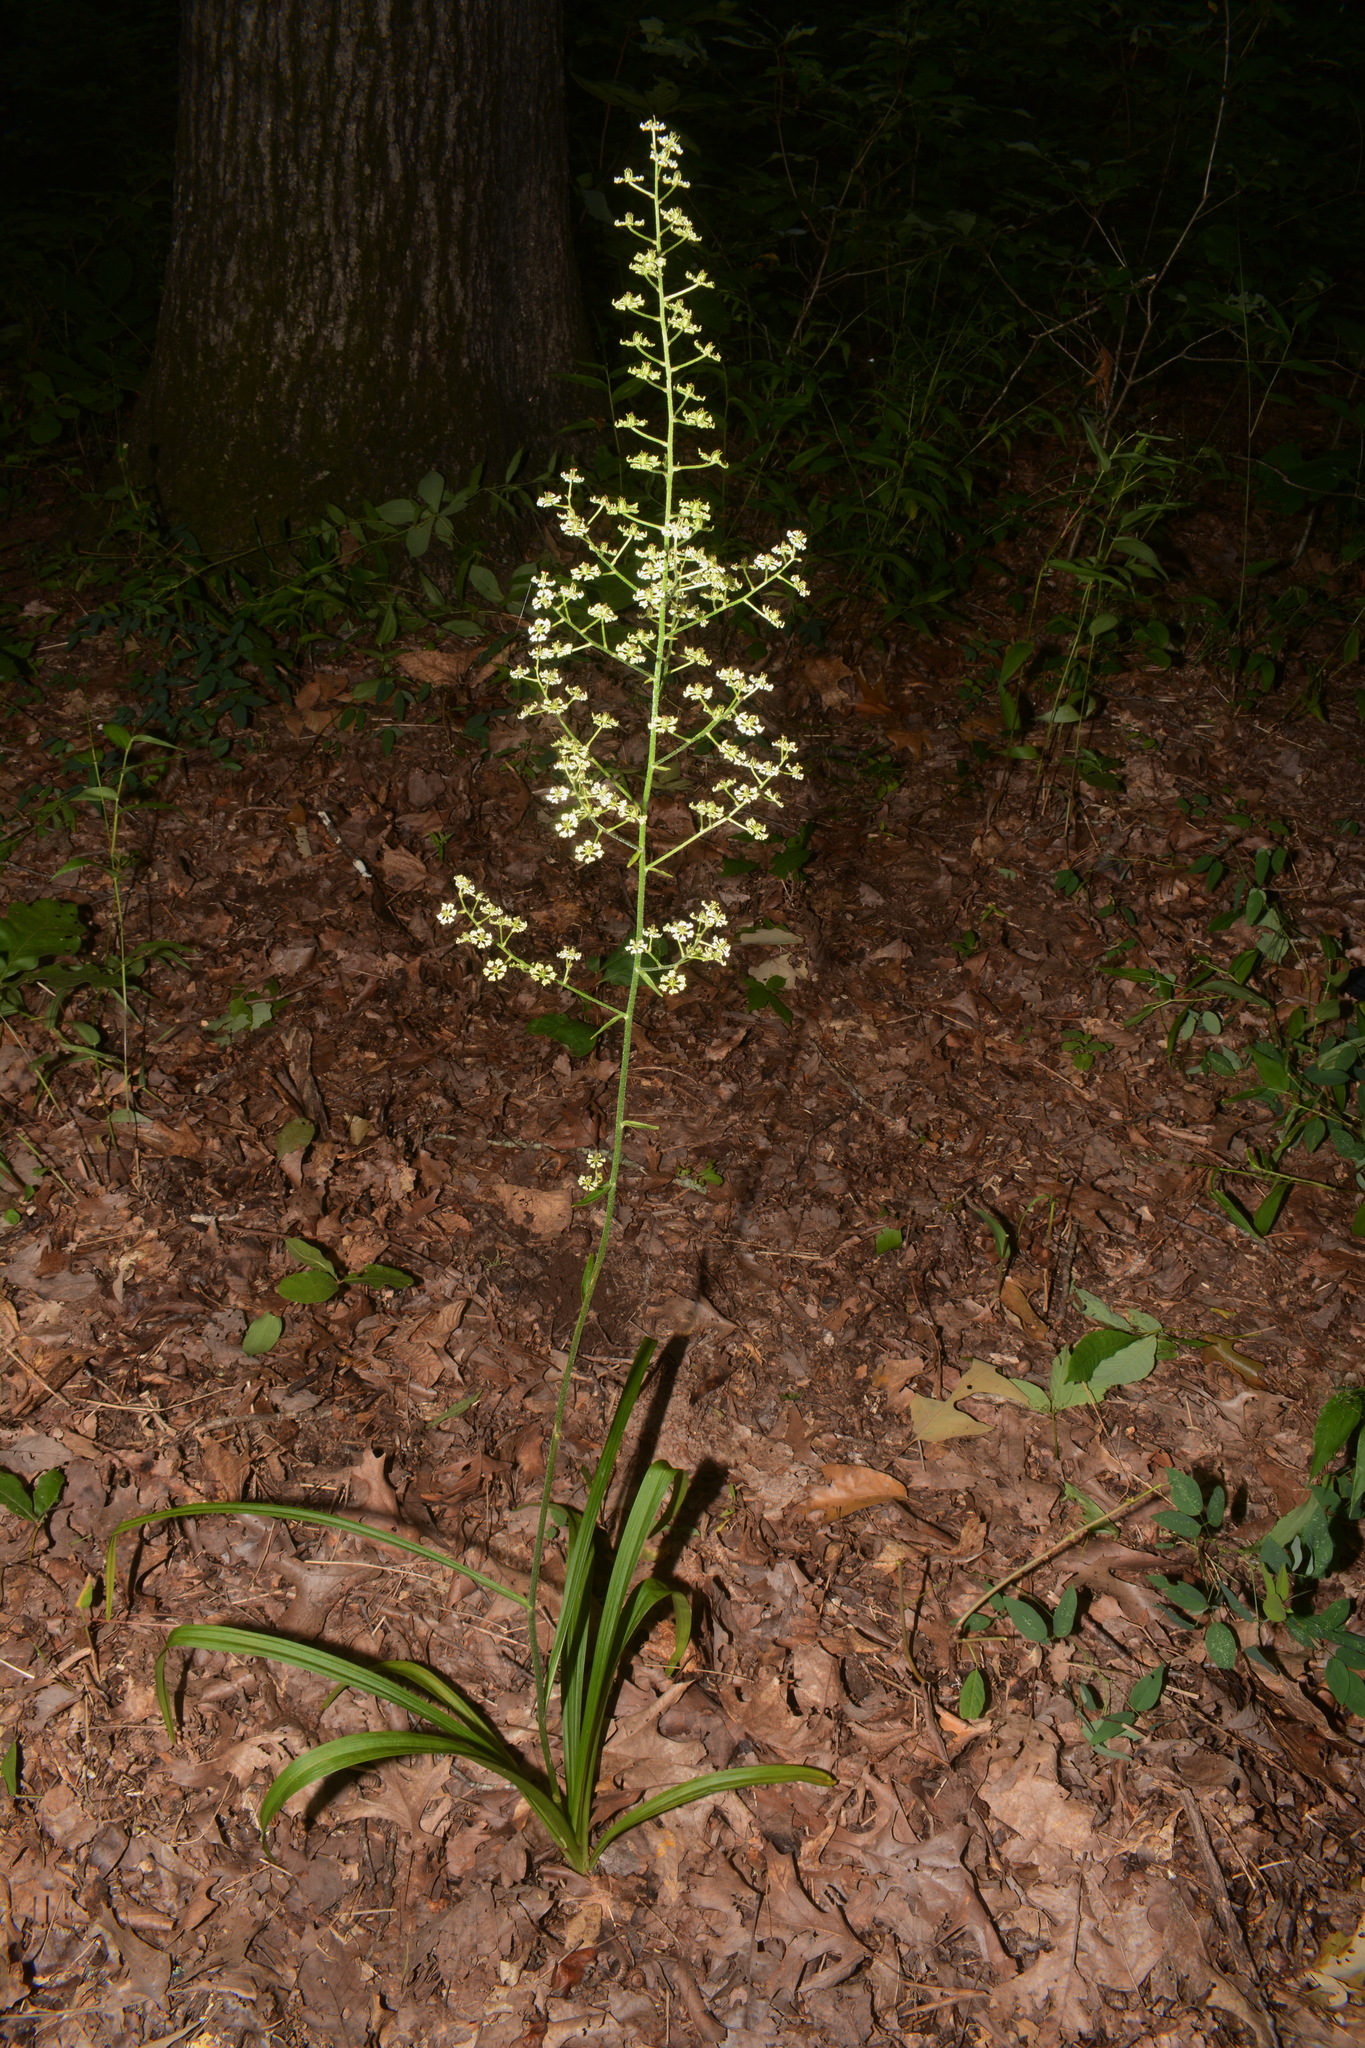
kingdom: Plantae
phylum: Tracheophyta
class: Liliopsida
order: Liliales
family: Melanthiaceae
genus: Veratrum
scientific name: Veratrum hybridum
